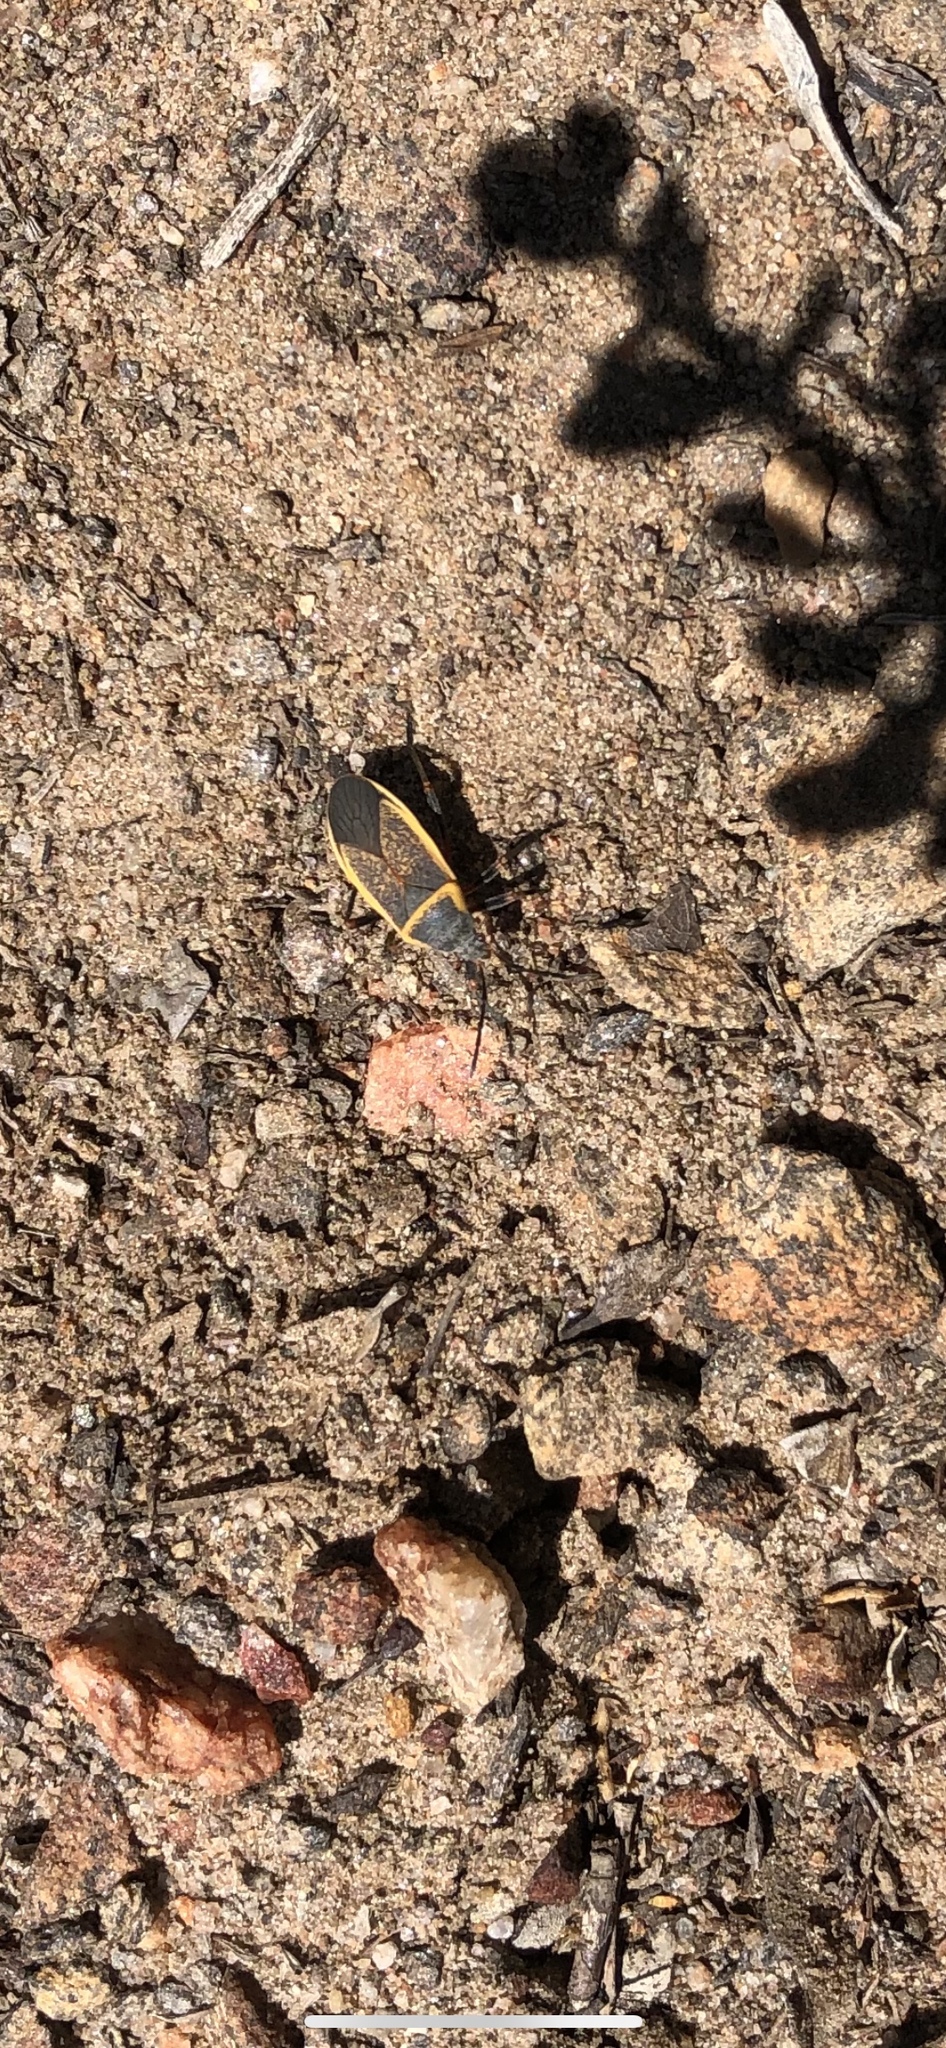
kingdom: Animalia
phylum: Arthropoda
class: Insecta
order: Hemiptera
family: Largidae
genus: Largus
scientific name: Largus californicus
